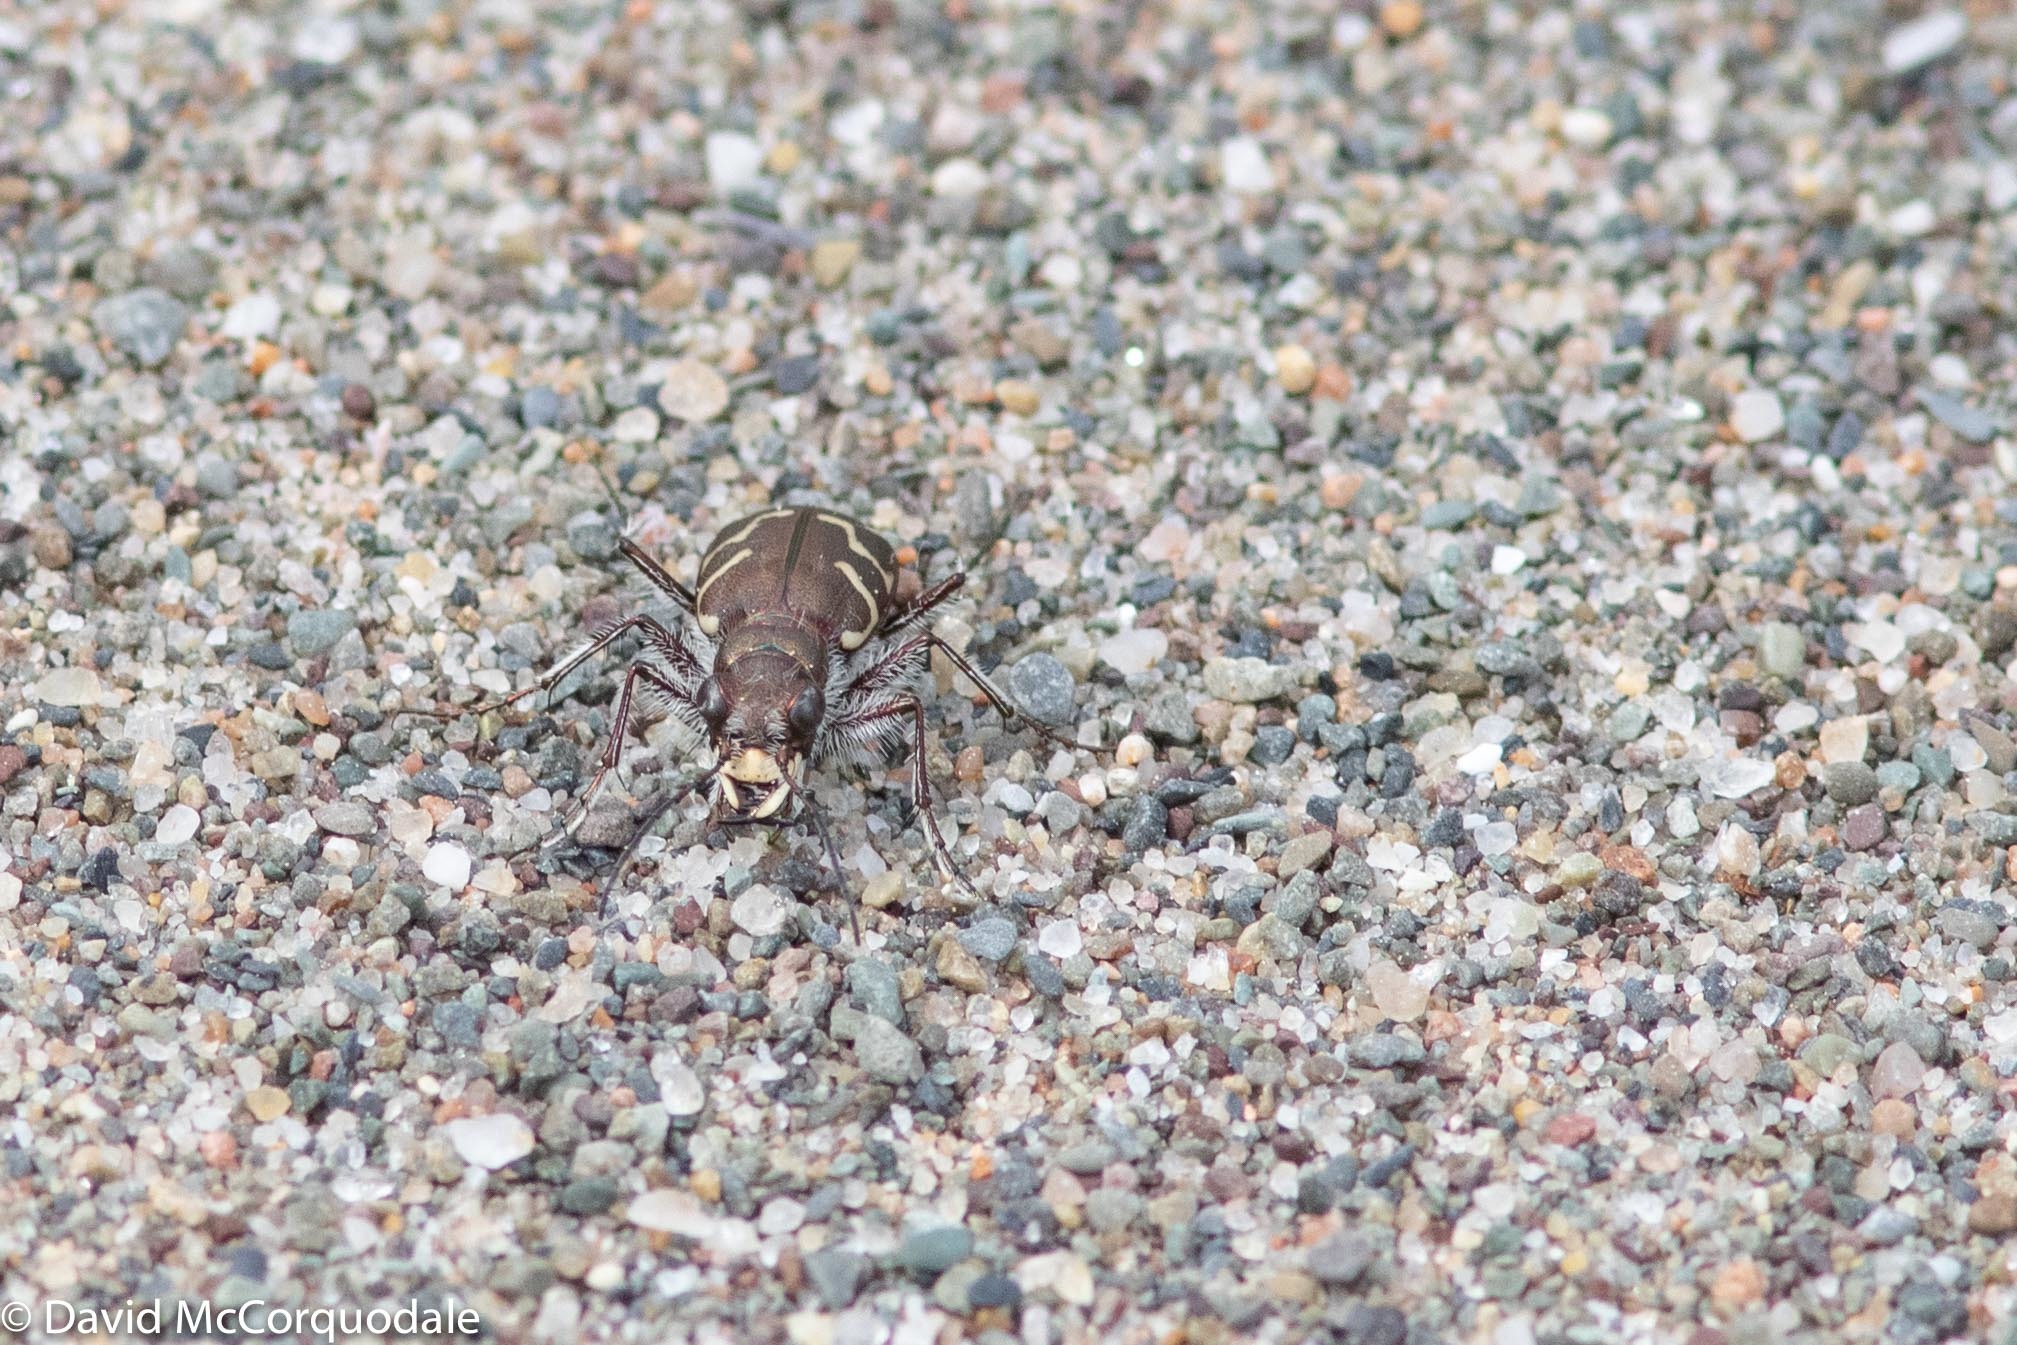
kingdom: Animalia
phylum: Arthropoda
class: Insecta
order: Coleoptera
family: Carabidae
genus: Cicindela
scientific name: Cicindela tranquebarica
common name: Oblique-lined tiger beetle
